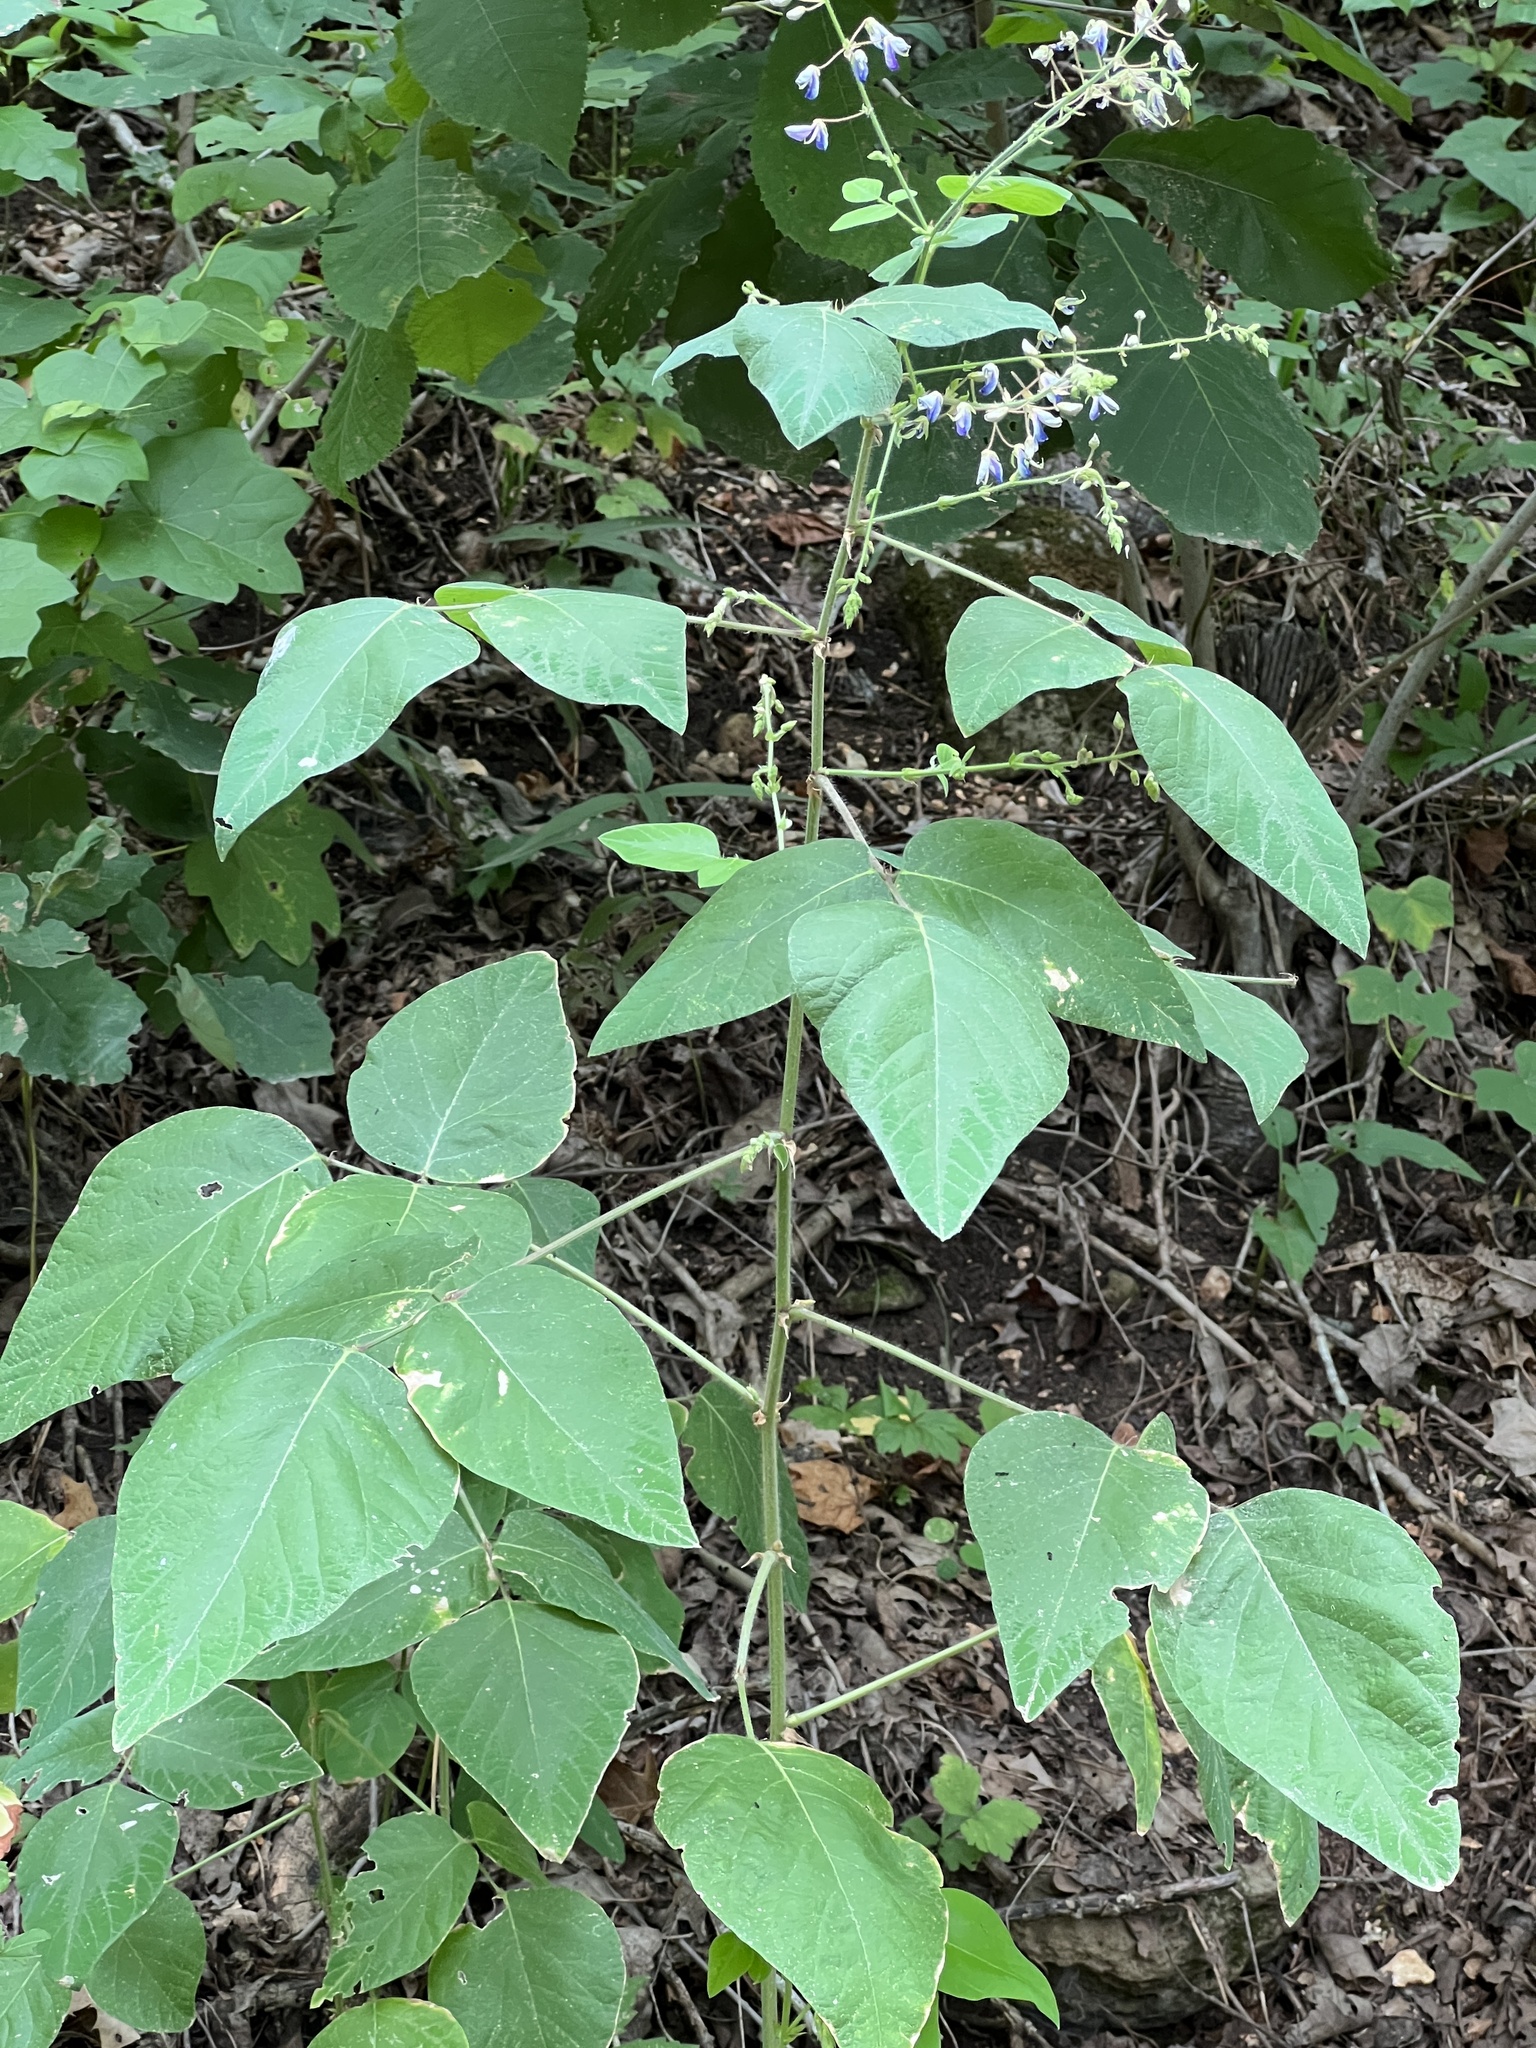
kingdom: Plantae
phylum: Tracheophyta
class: Magnoliopsida
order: Fabales
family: Fabaceae
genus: Desmodium
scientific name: Desmodium canescens
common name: Hoary tick-clover
